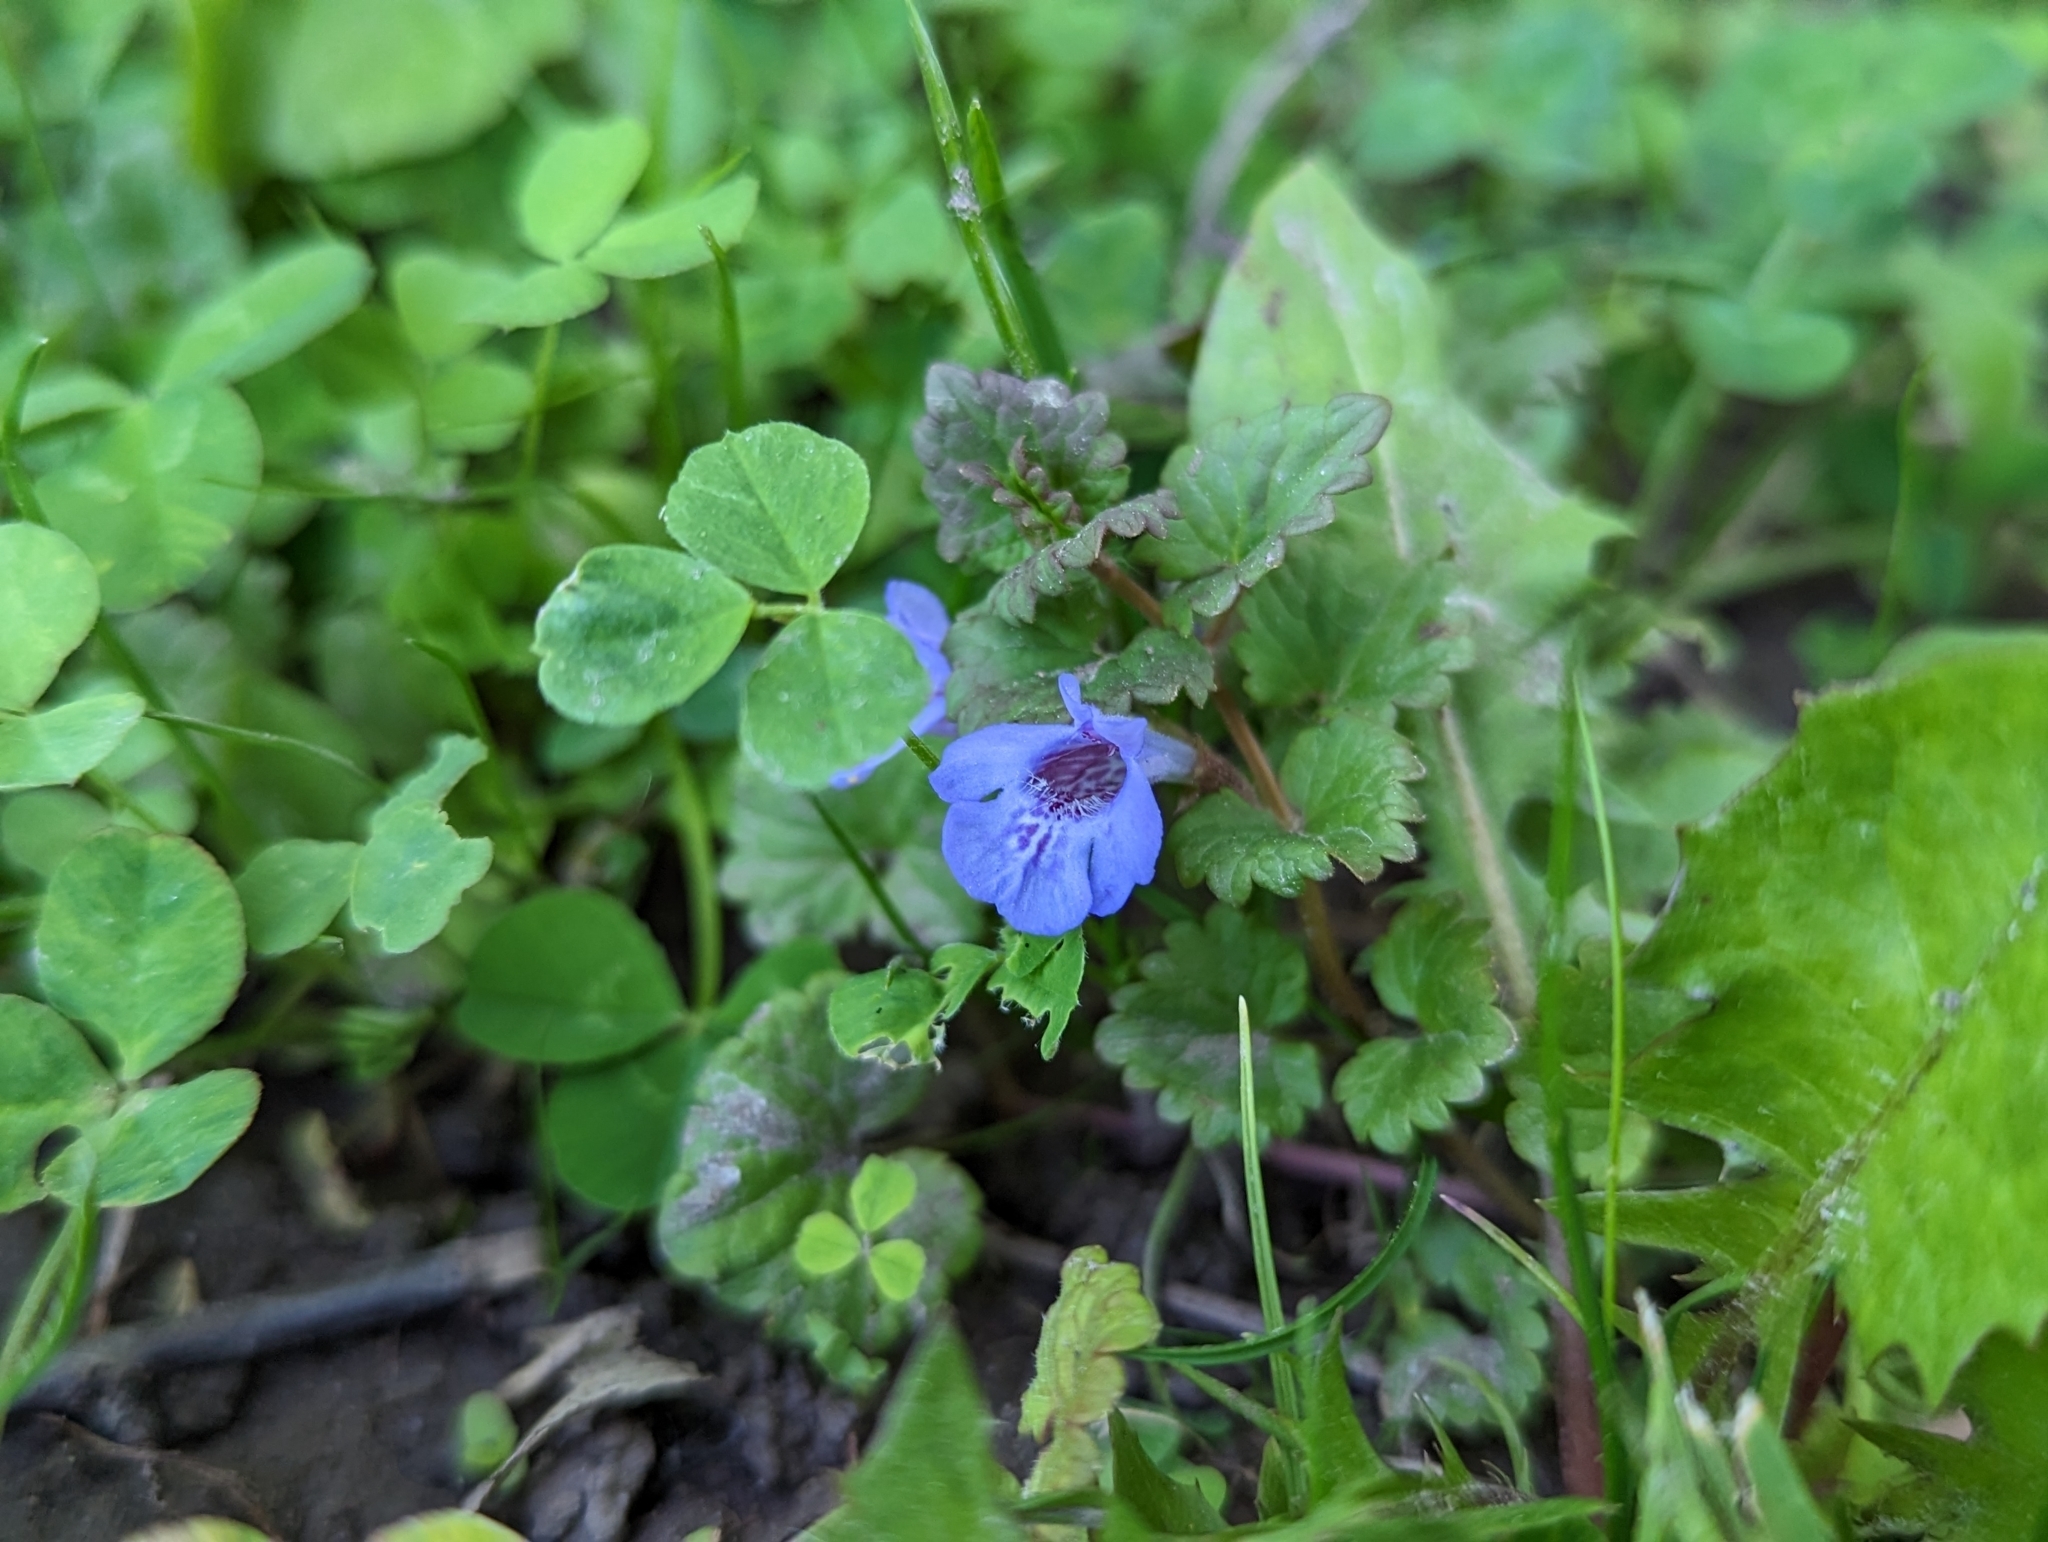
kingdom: Plantae
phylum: Tracheophyta
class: Magnoliopsida
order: Lamiales
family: Lamiaceae
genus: Glechoma
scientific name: Glechoma hederacea
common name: Ground ivy
